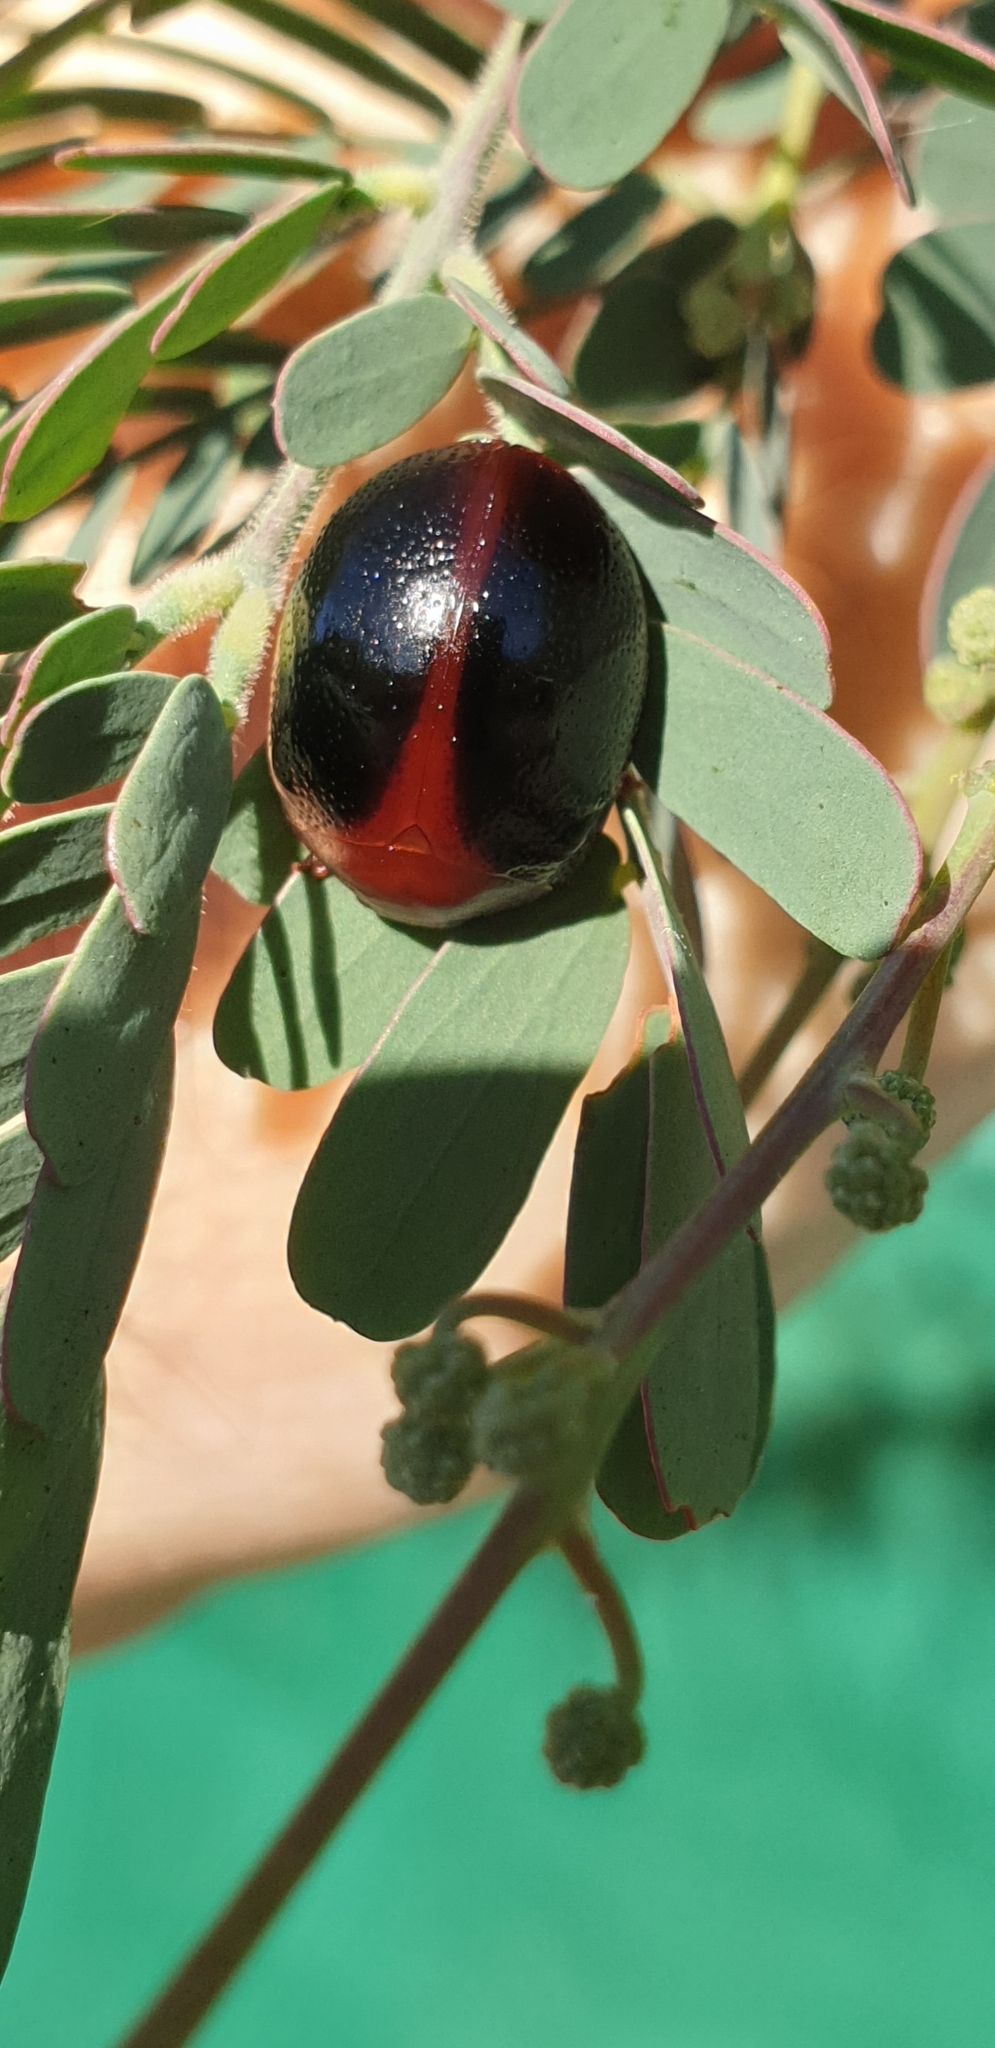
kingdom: Animalia
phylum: Arthropoda
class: Insecta
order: Coleoptera
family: Chrysomelidae
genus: Dicranosterna
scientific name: Dicranosterna
